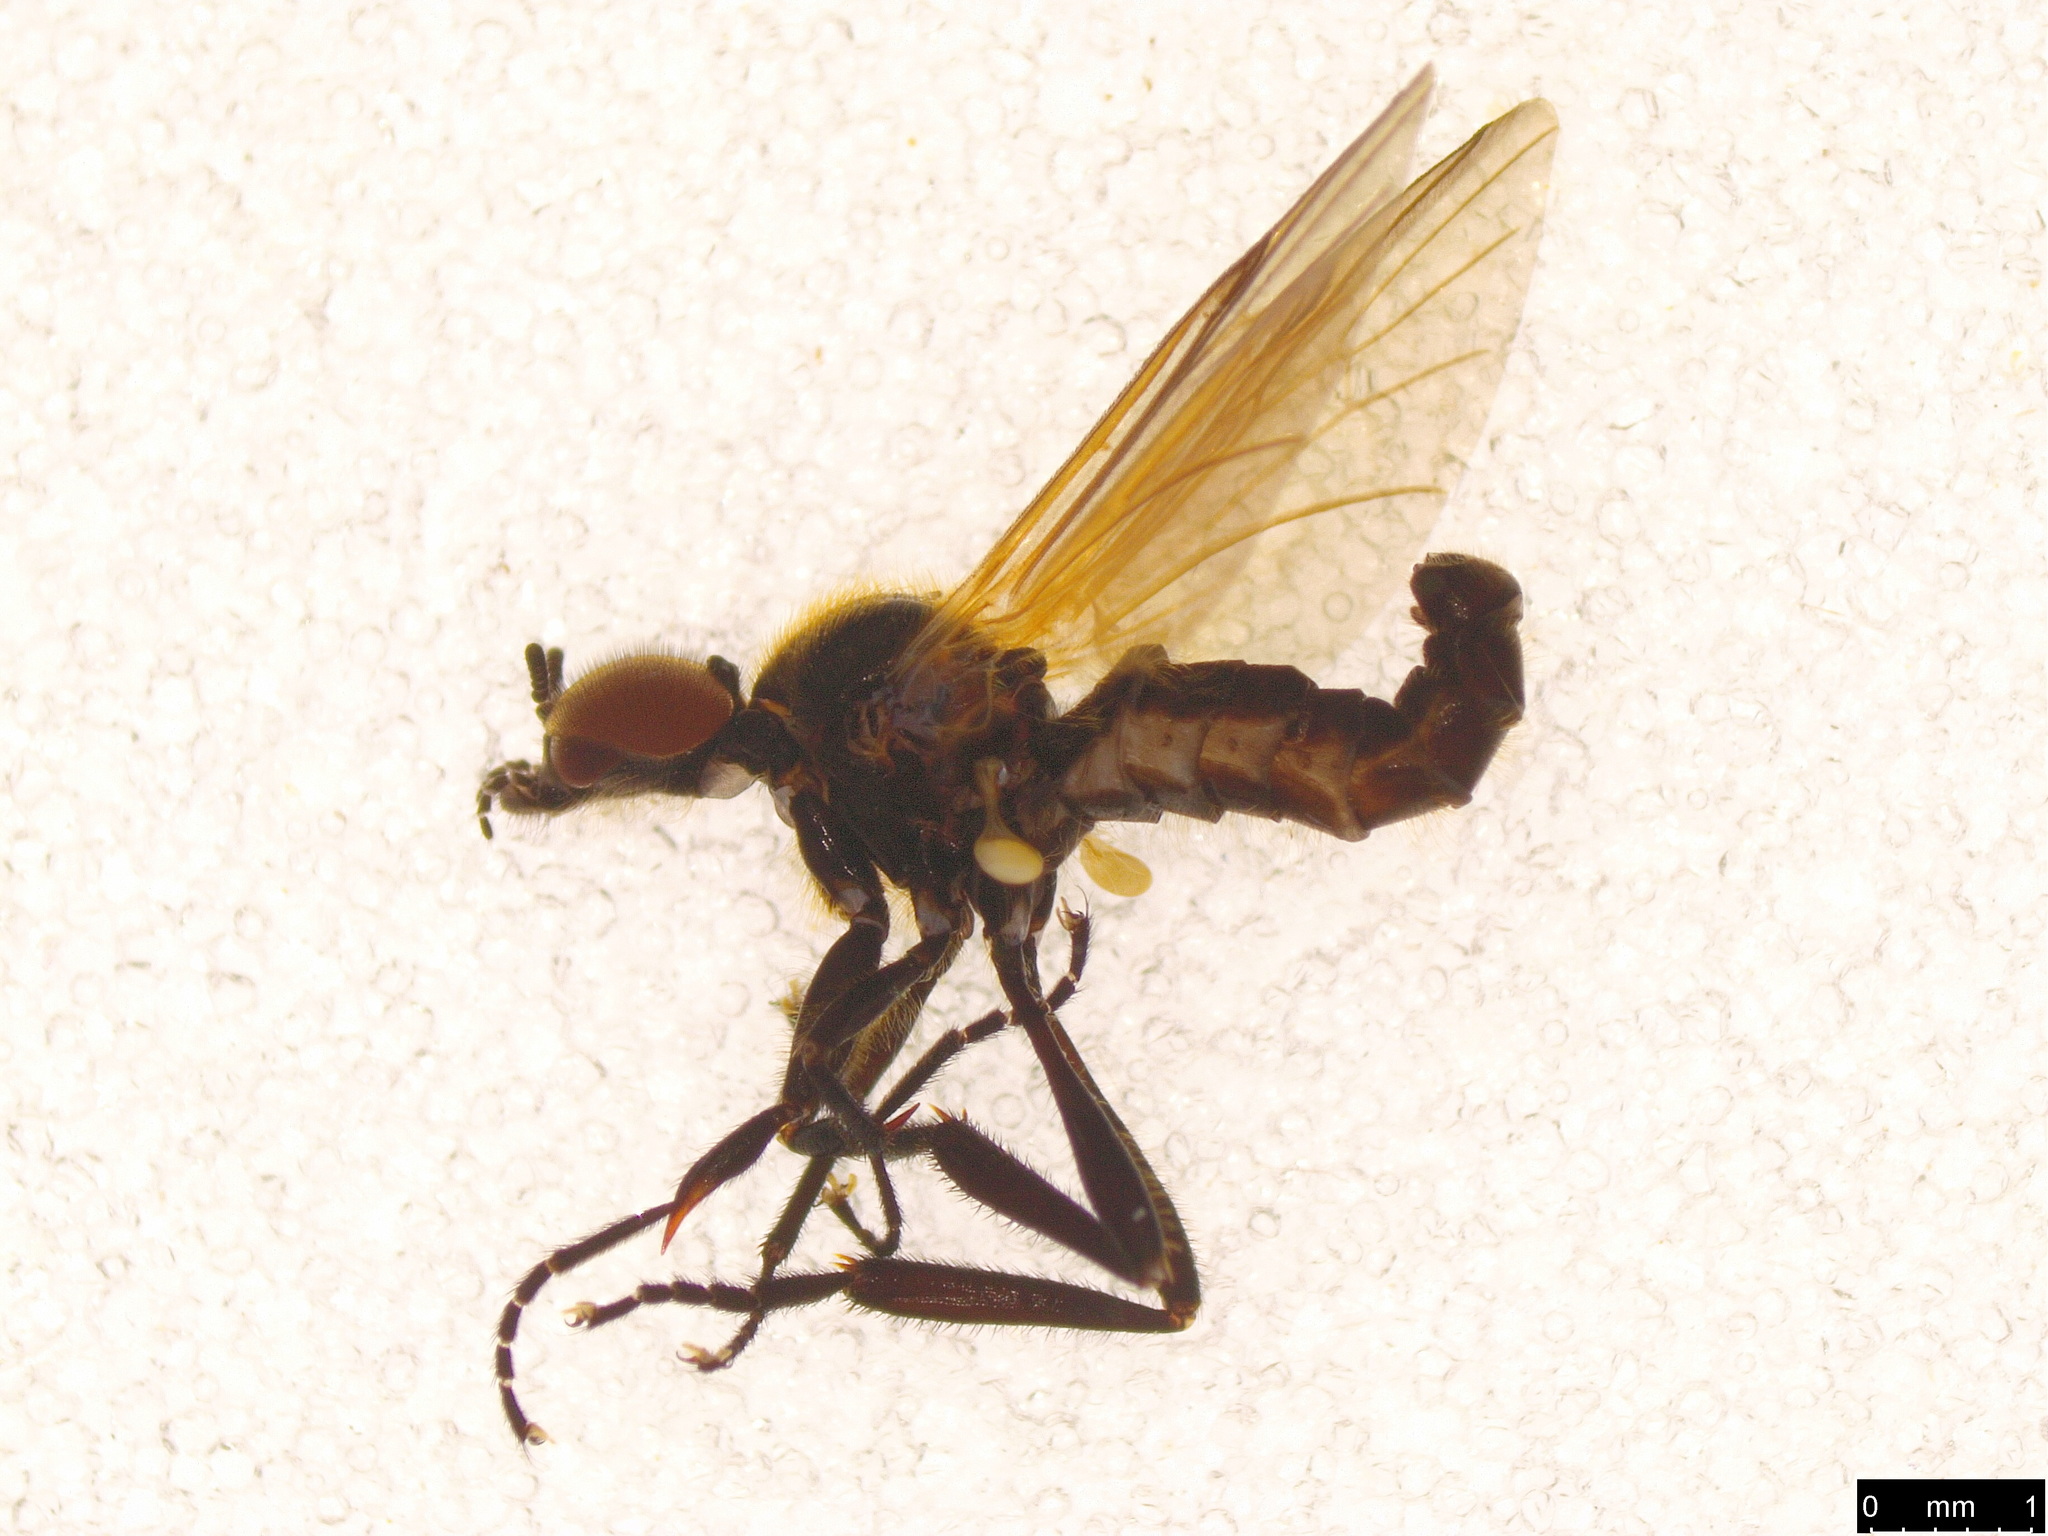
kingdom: Animalia
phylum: Arthropoda
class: Insecta
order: Diptera
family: Bibionidae
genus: Bibio
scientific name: Bibio imitator
